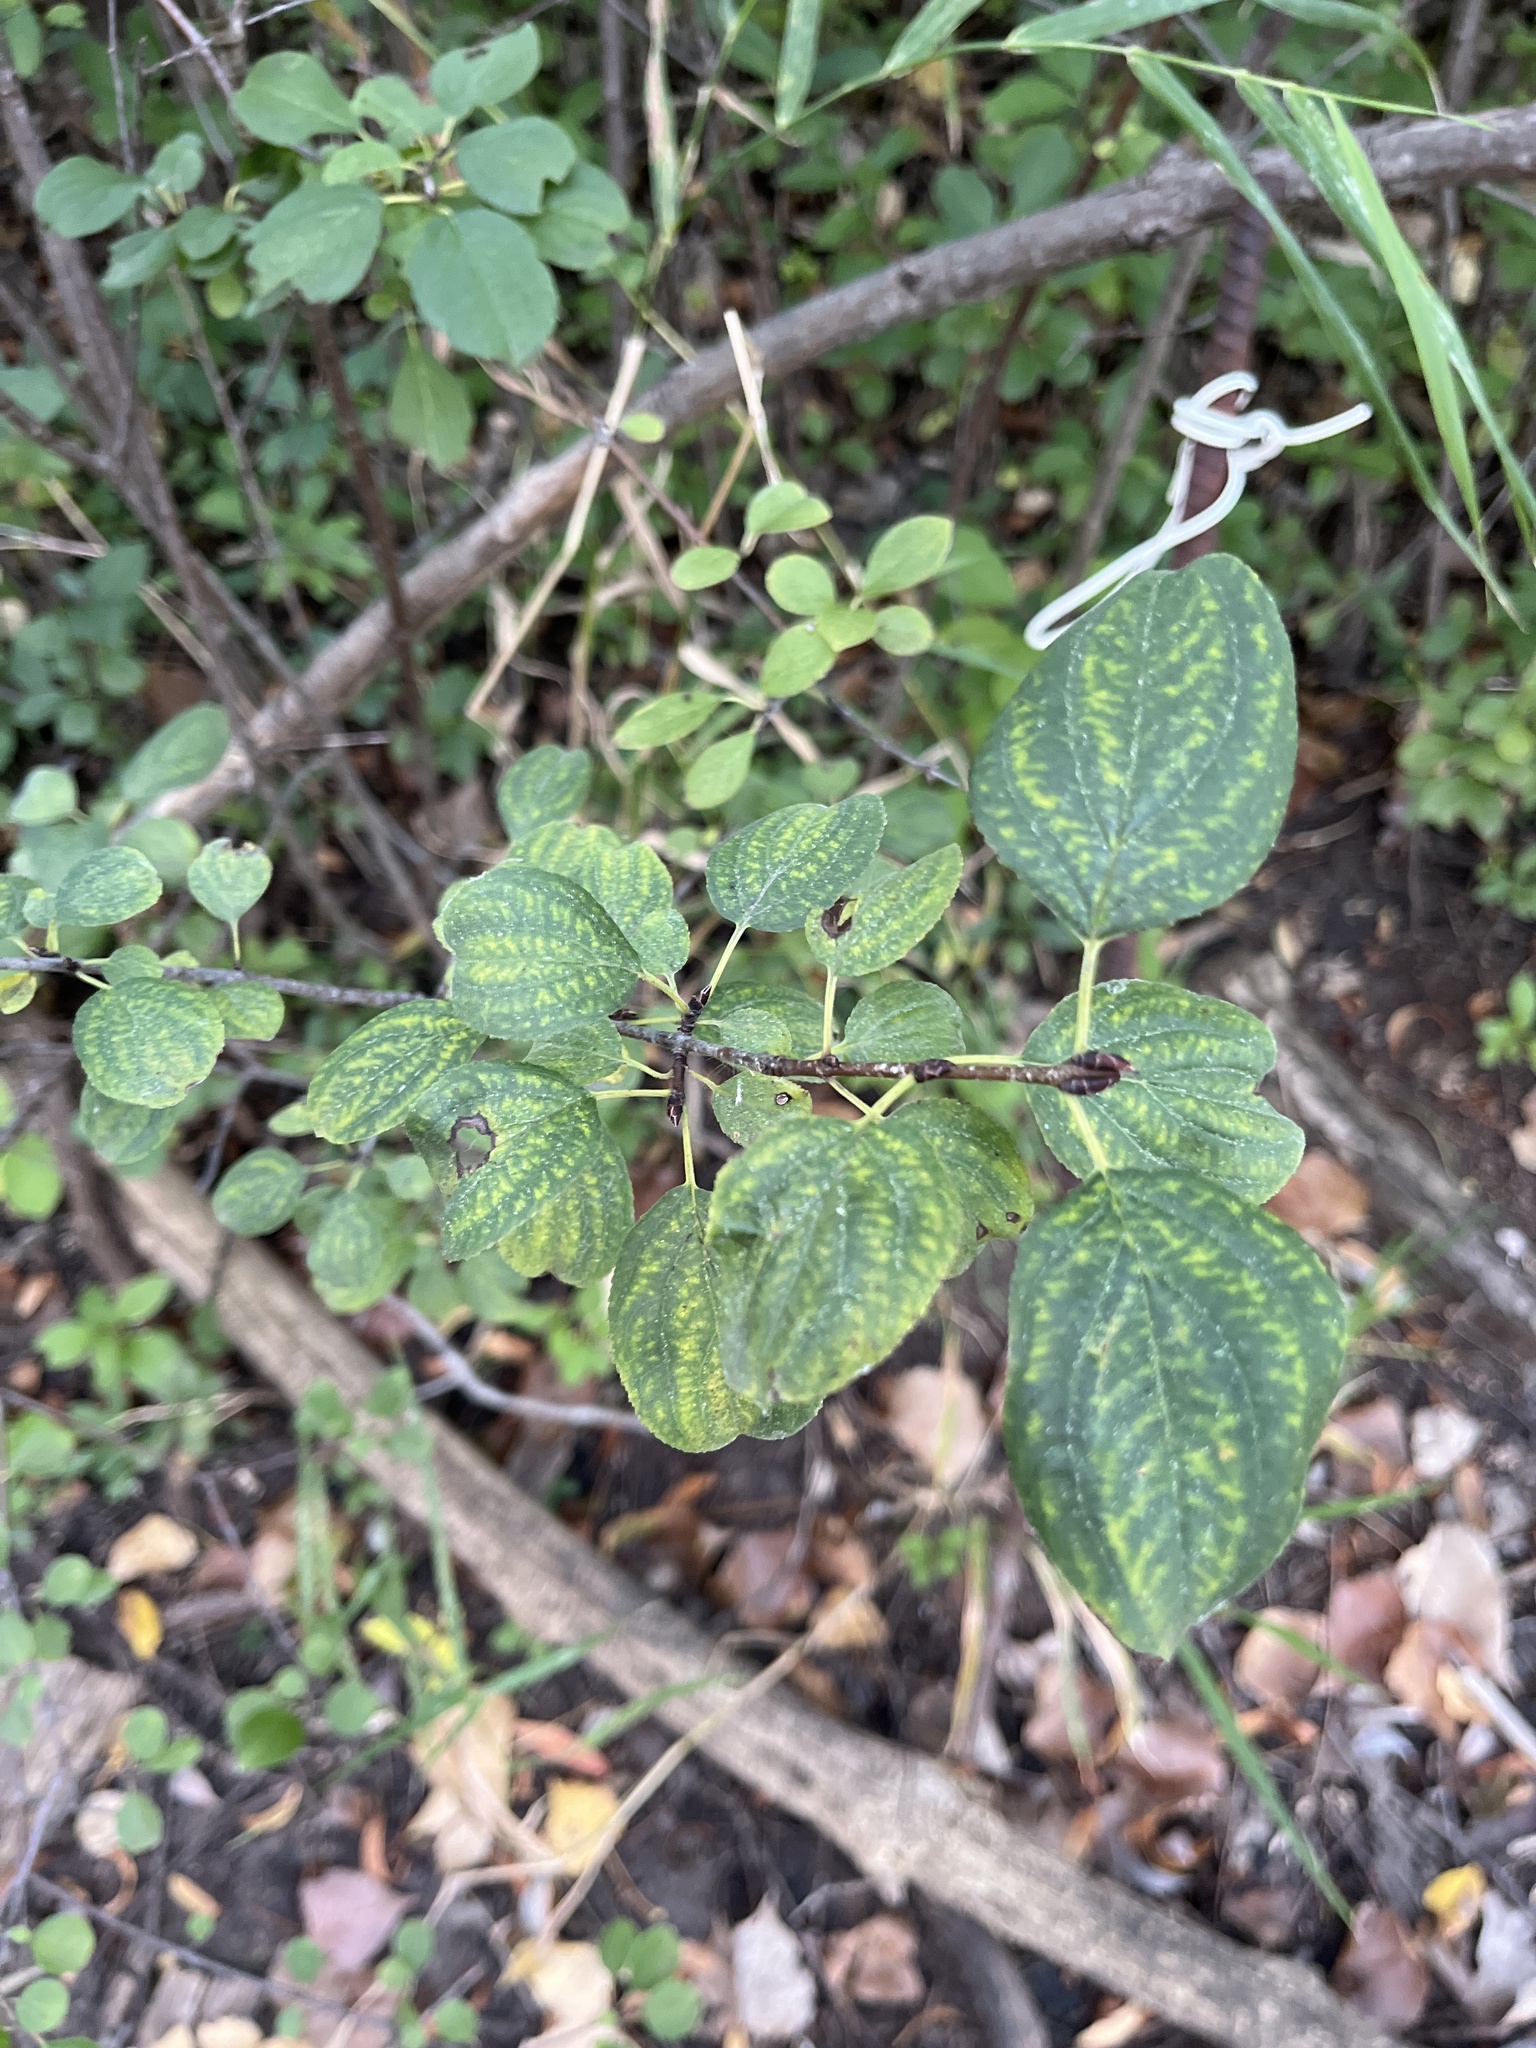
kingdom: Plantae
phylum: Tracheophyta
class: Magnoliopsida
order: Rosales
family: Rhamnaceae
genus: Rhamnus
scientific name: Rhamnus cathartica
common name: Common buckthorn
